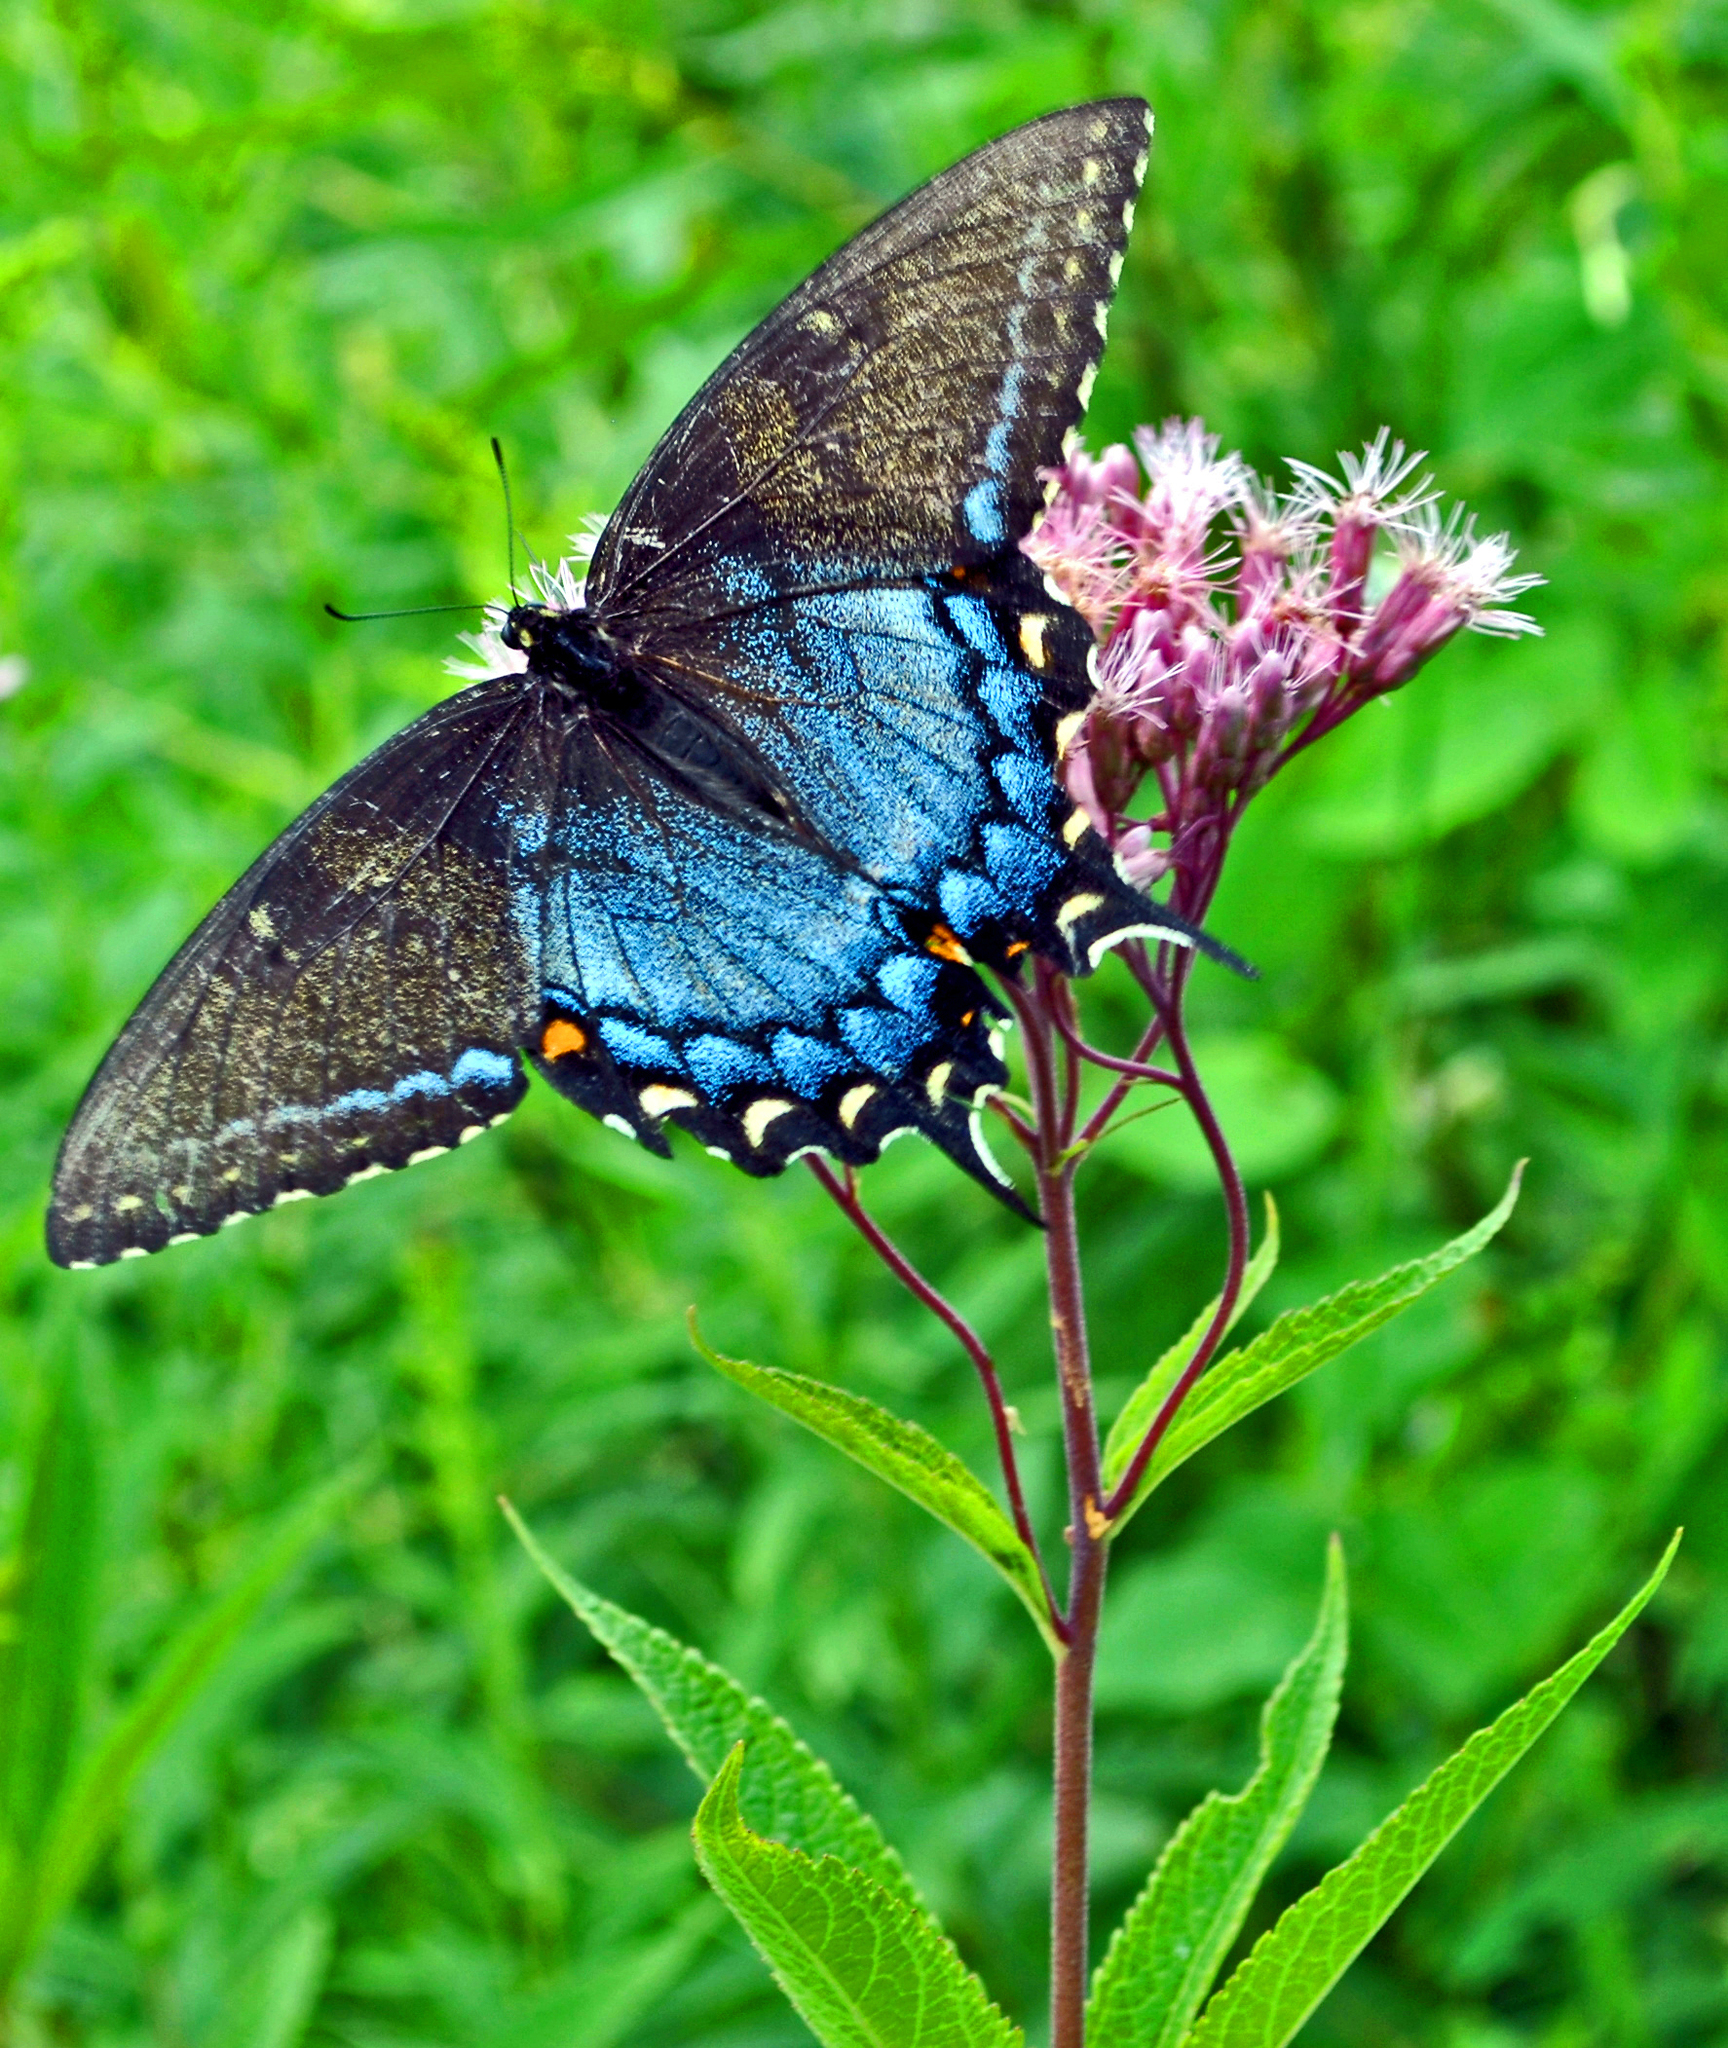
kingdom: Animalia
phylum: Arthropoda
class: Insecta
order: Lepidoptera
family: Papilionidae
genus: Papilio
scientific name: Papilio glaucus
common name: Tiger swallowtail
